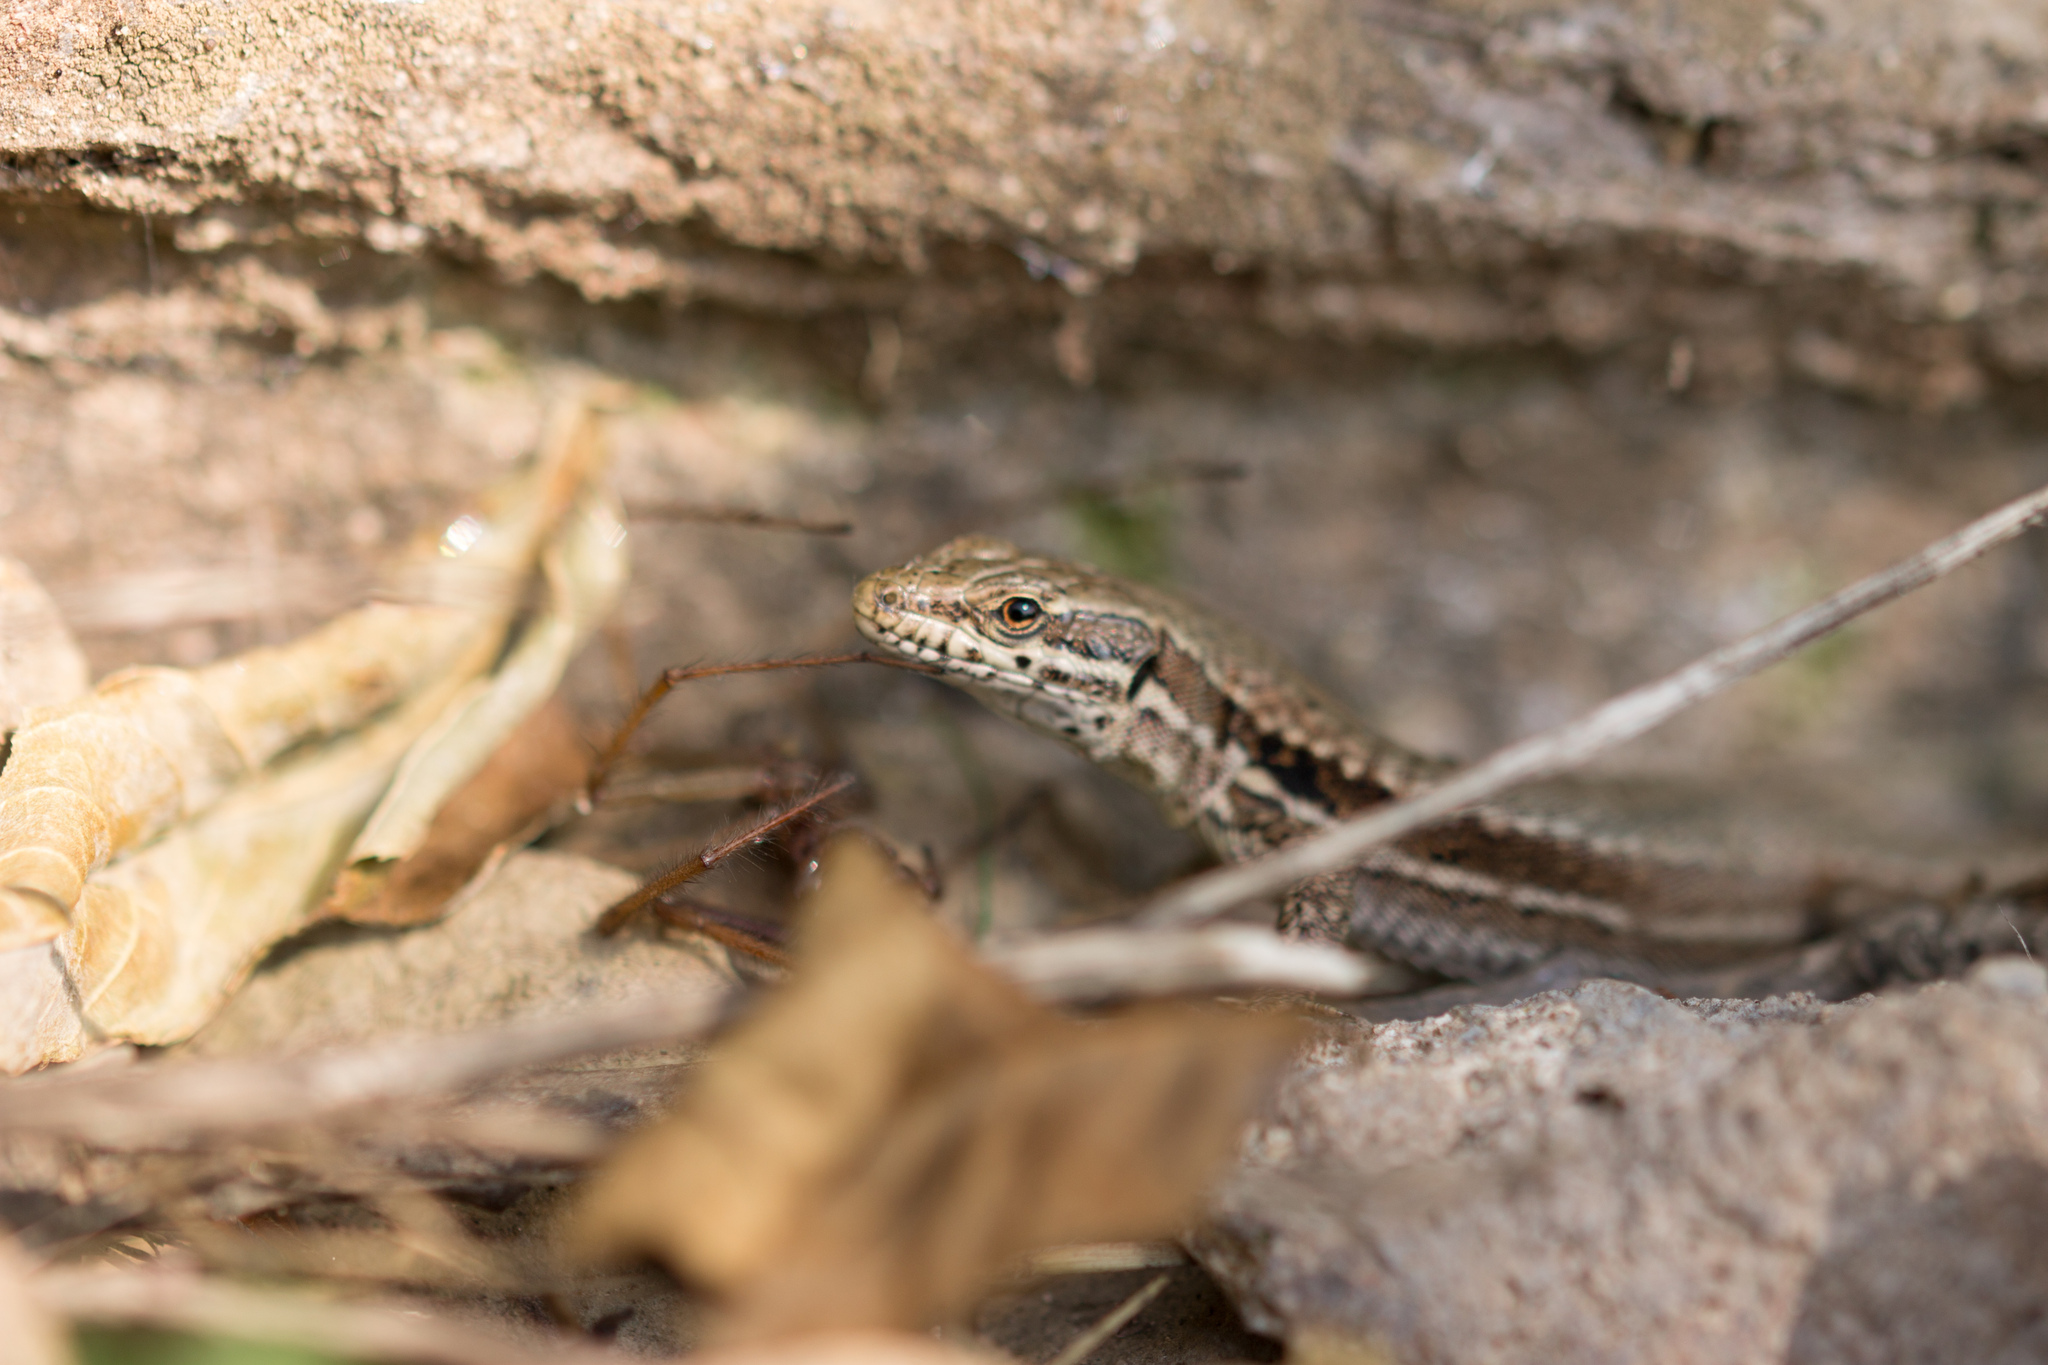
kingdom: Animalia
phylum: Chordata
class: Squamata
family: Lacertidae
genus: Podarcis
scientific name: Podarcis muralis
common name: Common wall lizard
